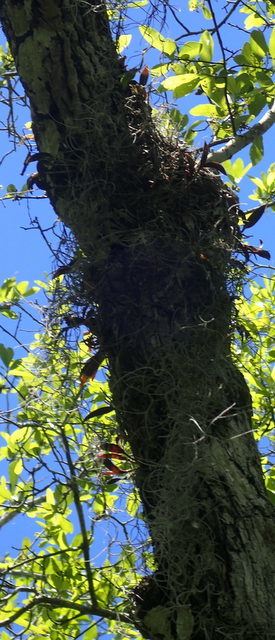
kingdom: Plantae
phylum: Tracheophyta
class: Liliopsida
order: Asparagales
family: Orchidaceae
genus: Epidendrum
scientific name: Epidendrum conopseum
